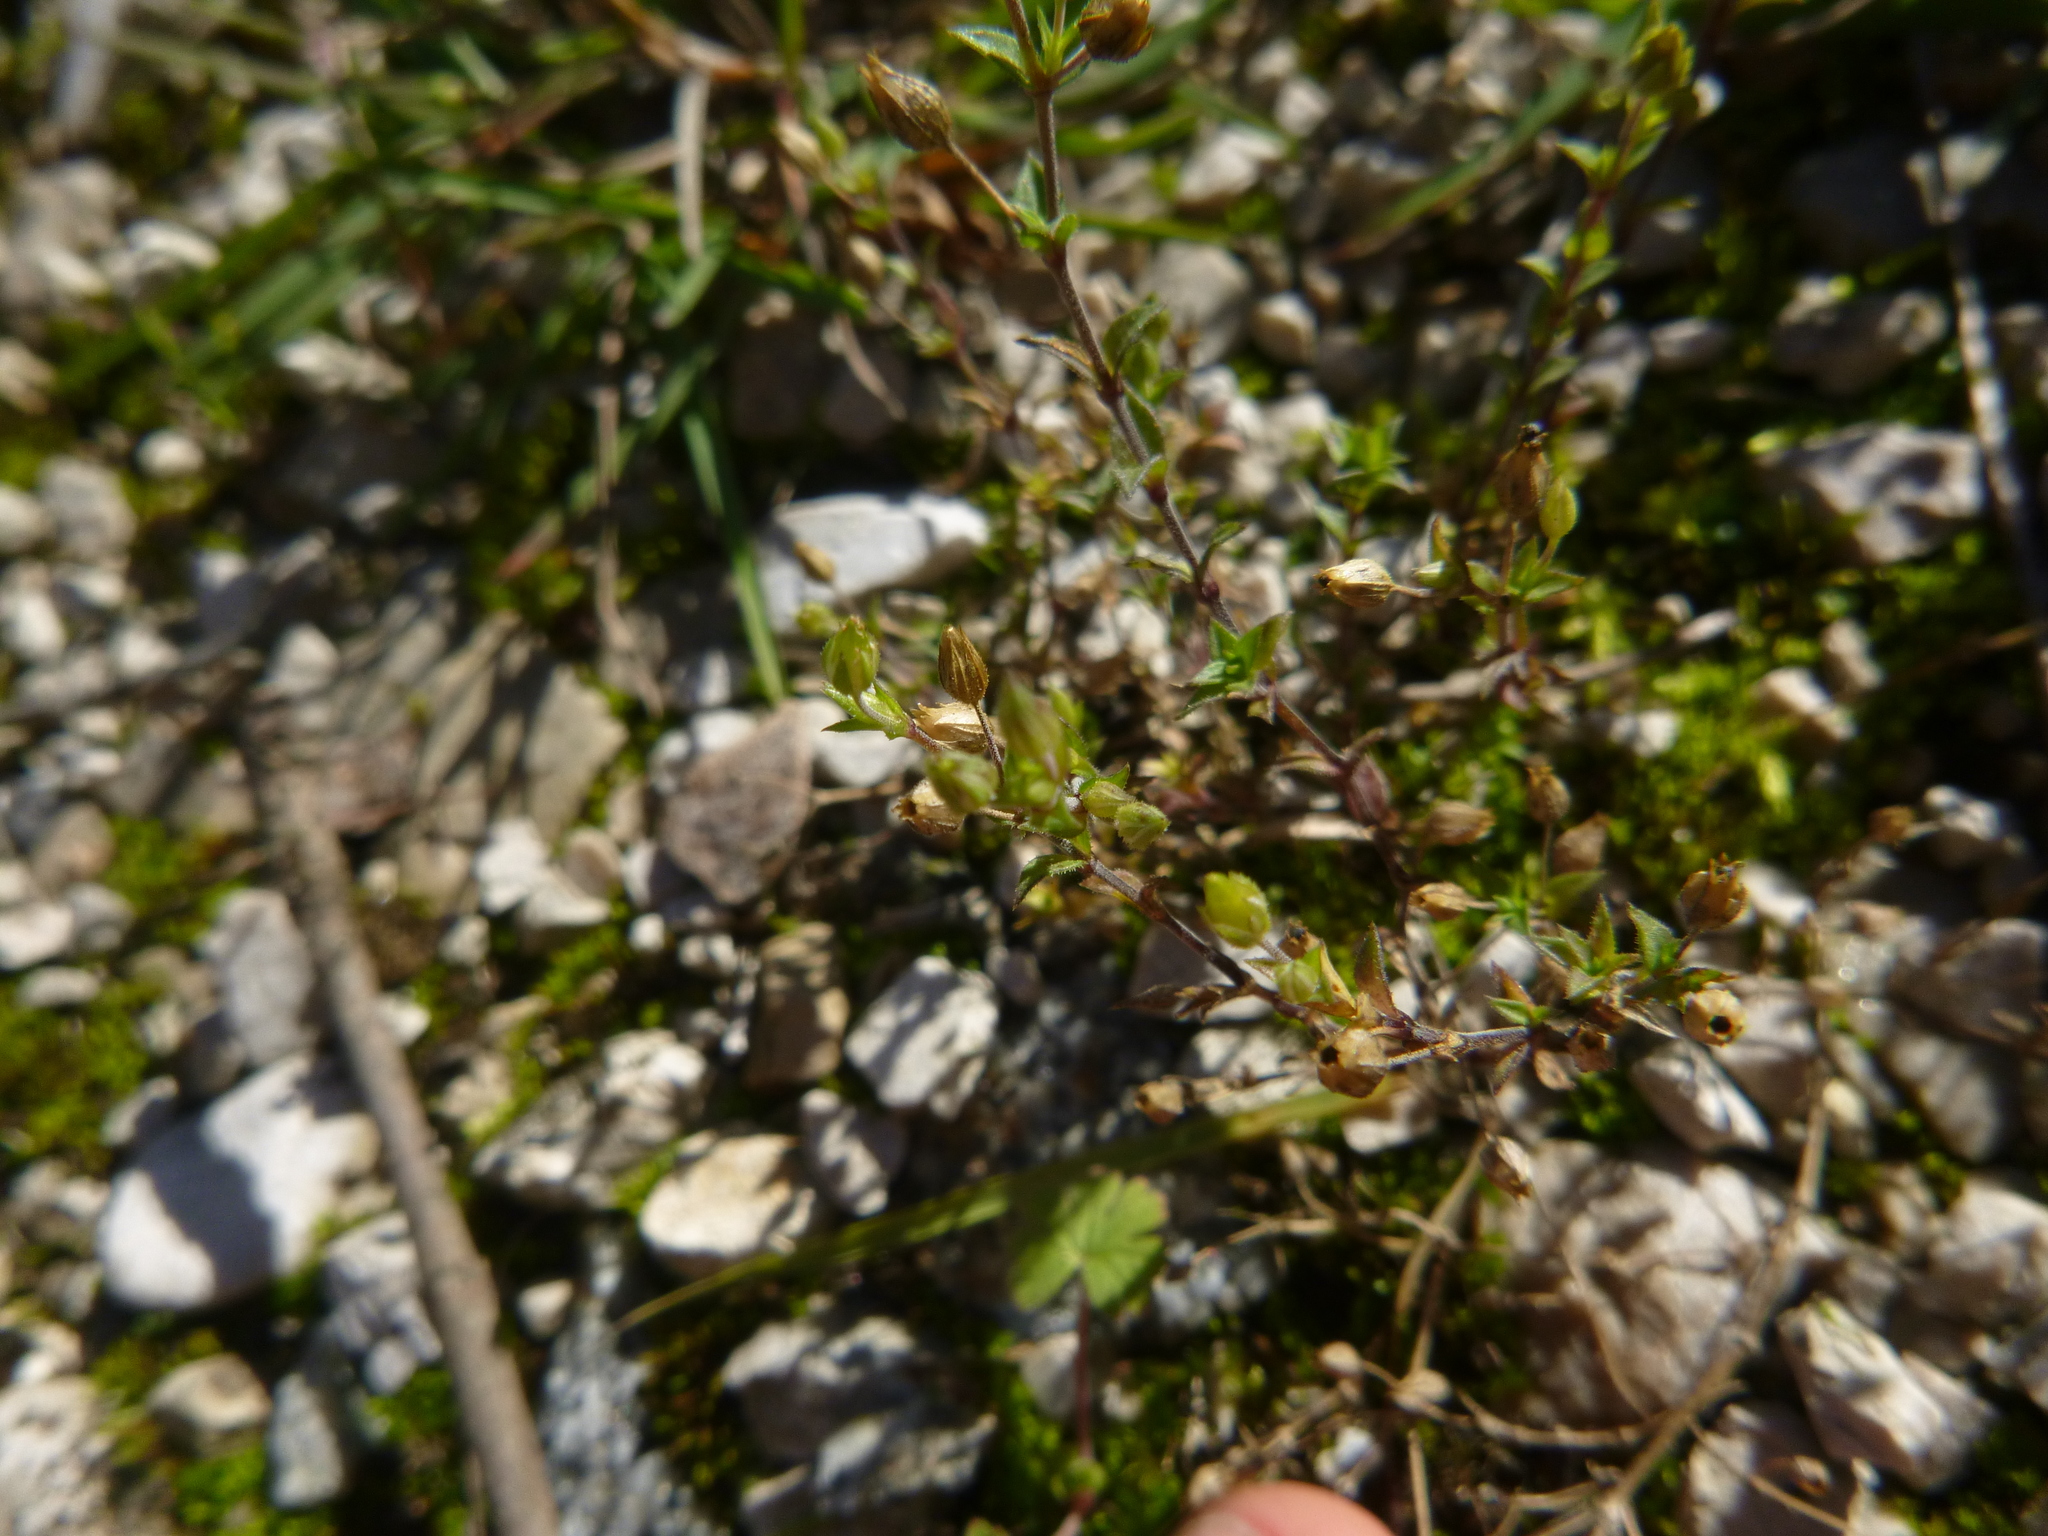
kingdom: Plantae
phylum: Tracheophyta
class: Magnoliopsida
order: Caryophyllales
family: Caryophyllaceae
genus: Arenaria
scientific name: Arenaria serpyllifolia
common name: Thyme-leaved sandwort
